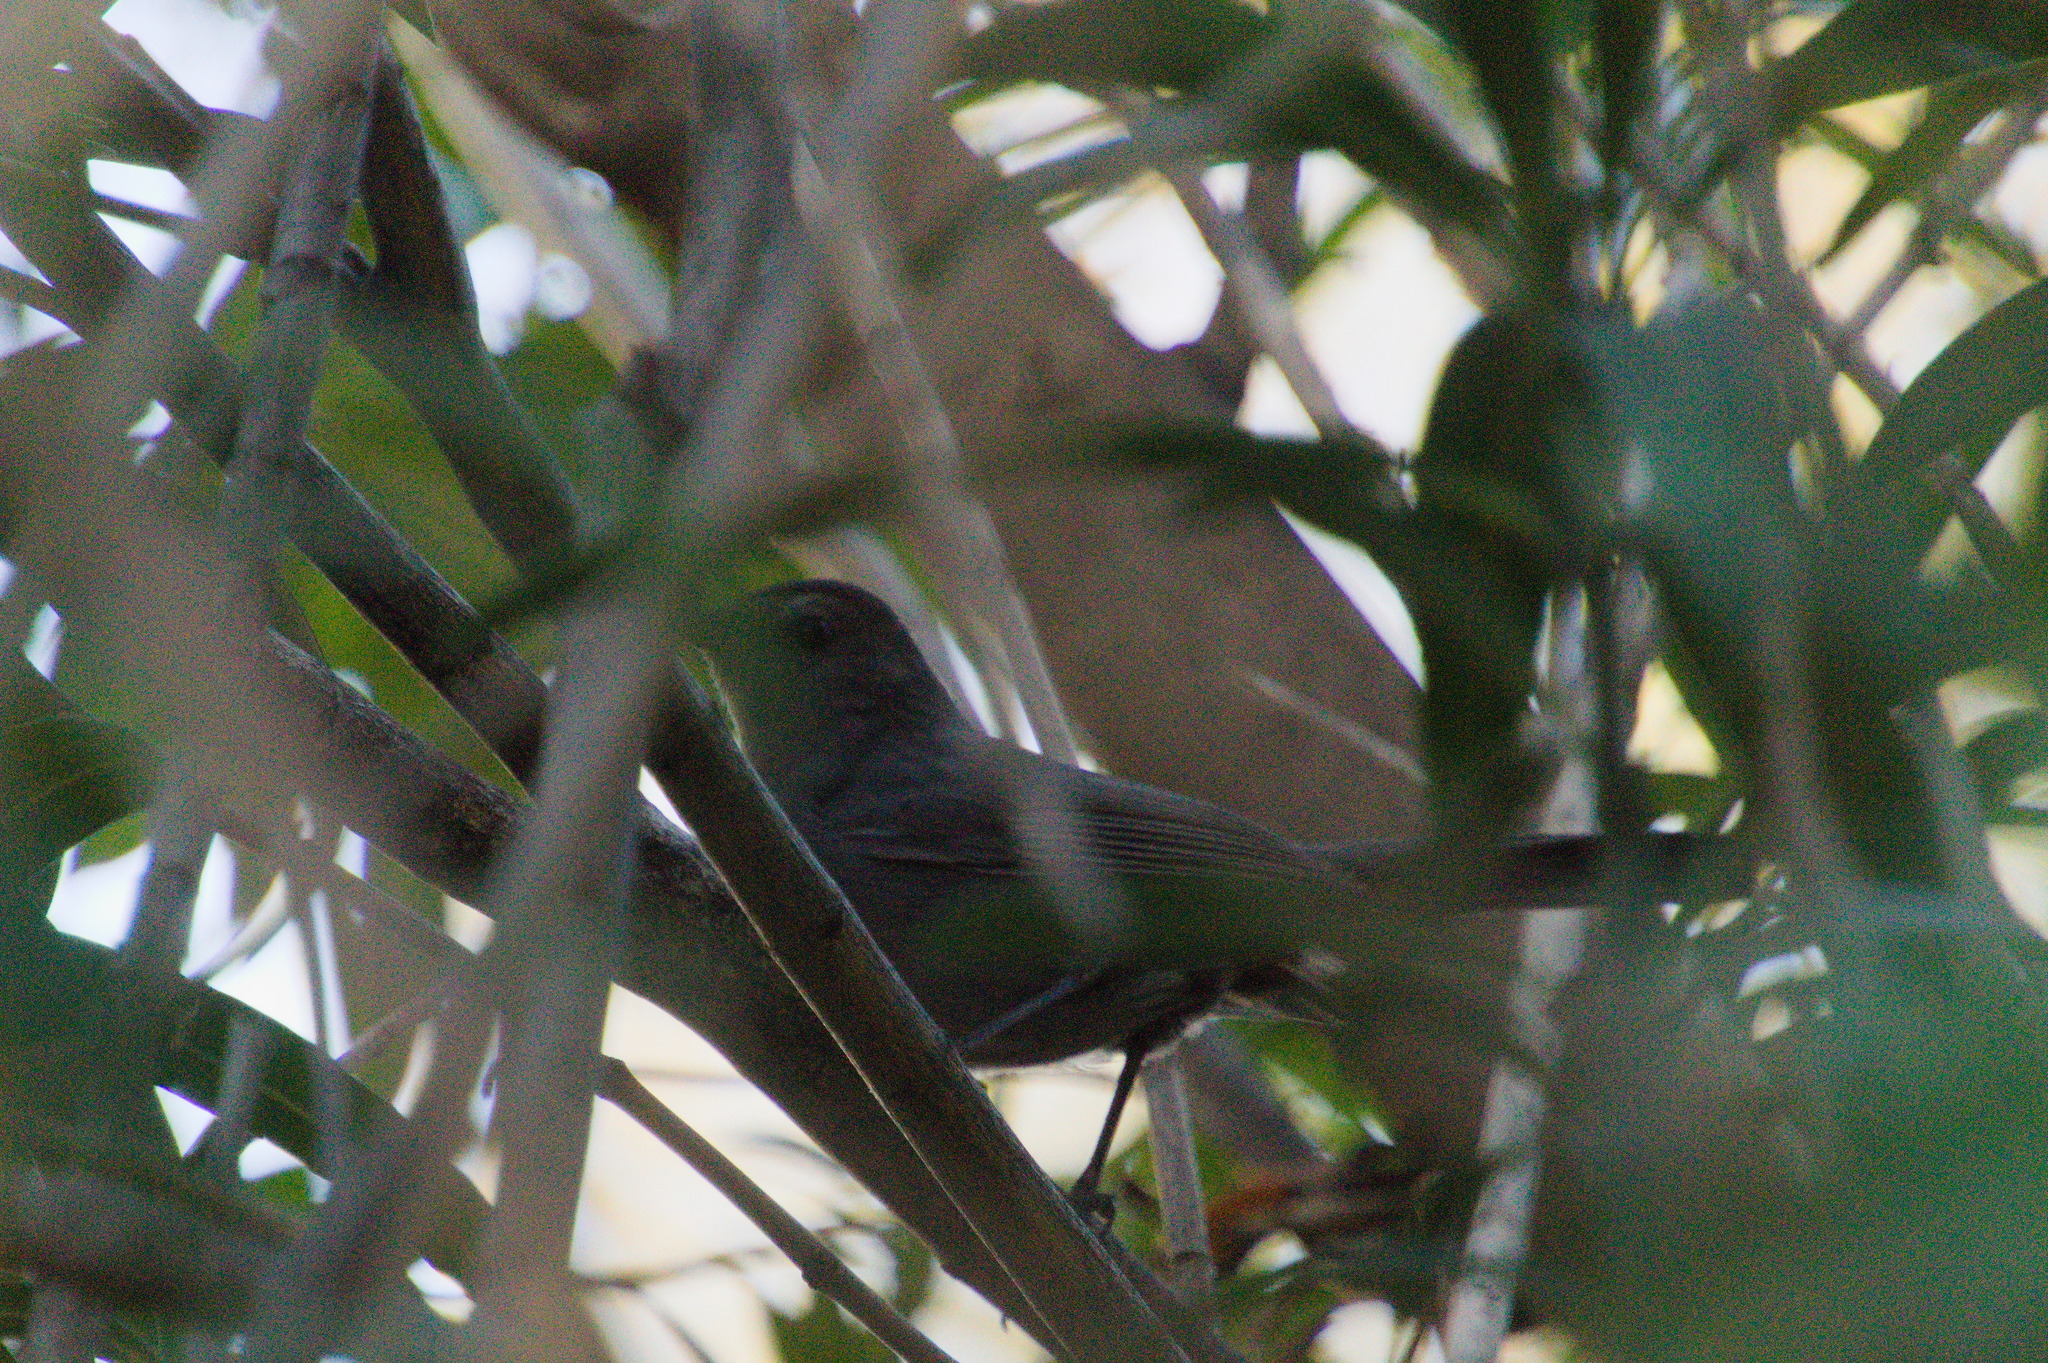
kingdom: Animalia
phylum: Chordata
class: Aves
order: Passeriformes
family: Mimidae
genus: Dumetella
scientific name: Dumetella carolinensis
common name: Gray catbird
